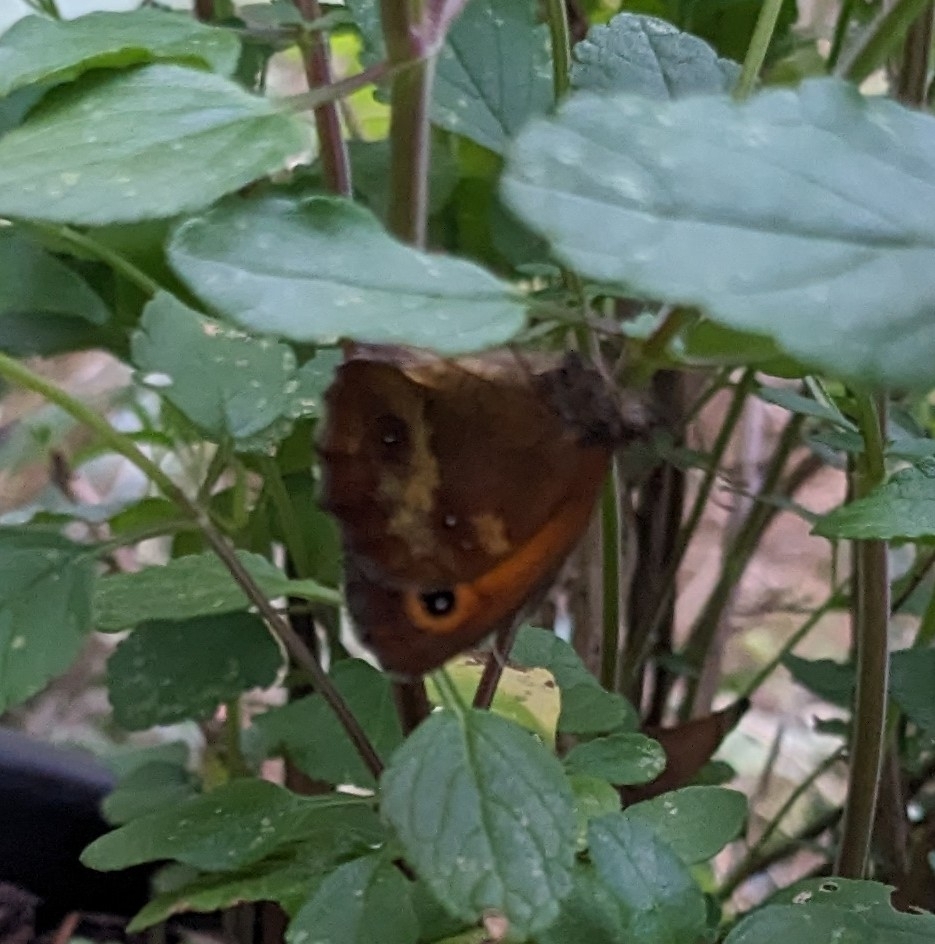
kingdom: Animalia
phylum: Arthropoda
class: Insecta
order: Lepidoptera
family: Nymphalidae
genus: Pyronia
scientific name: Pyronia tithonus
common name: Gatekeeper
